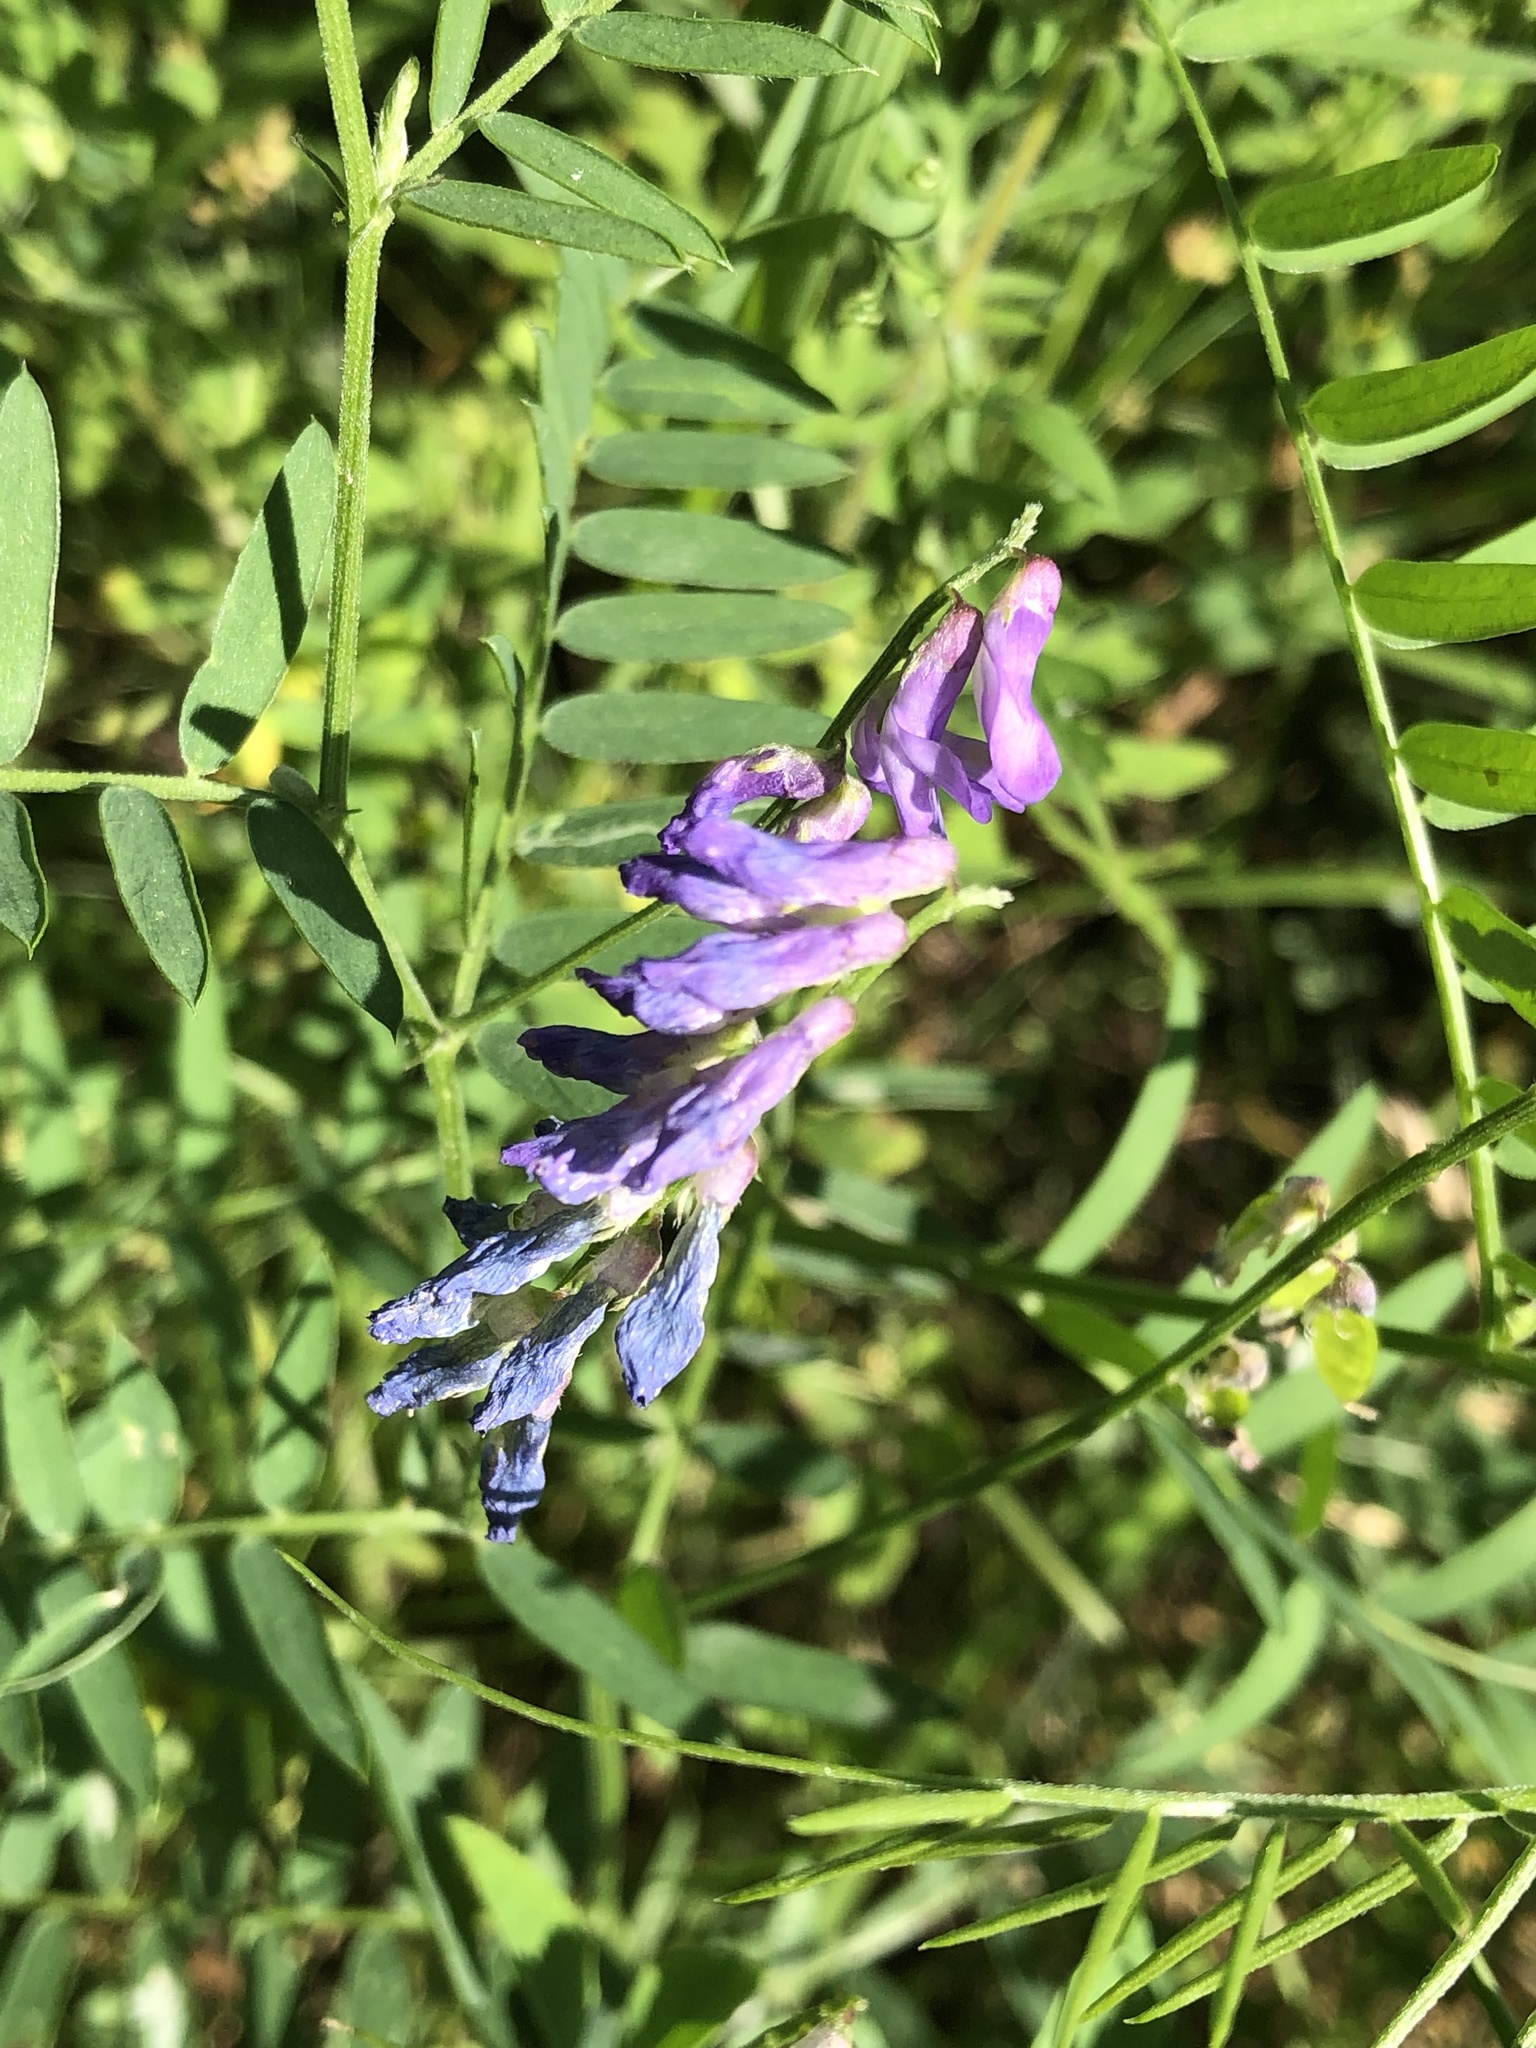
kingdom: Plantae
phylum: Tracheophyta
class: Magnoliopsida
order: Fabales
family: Fabaceae
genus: Vicia
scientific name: Vicia cracca
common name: Bird vetch
